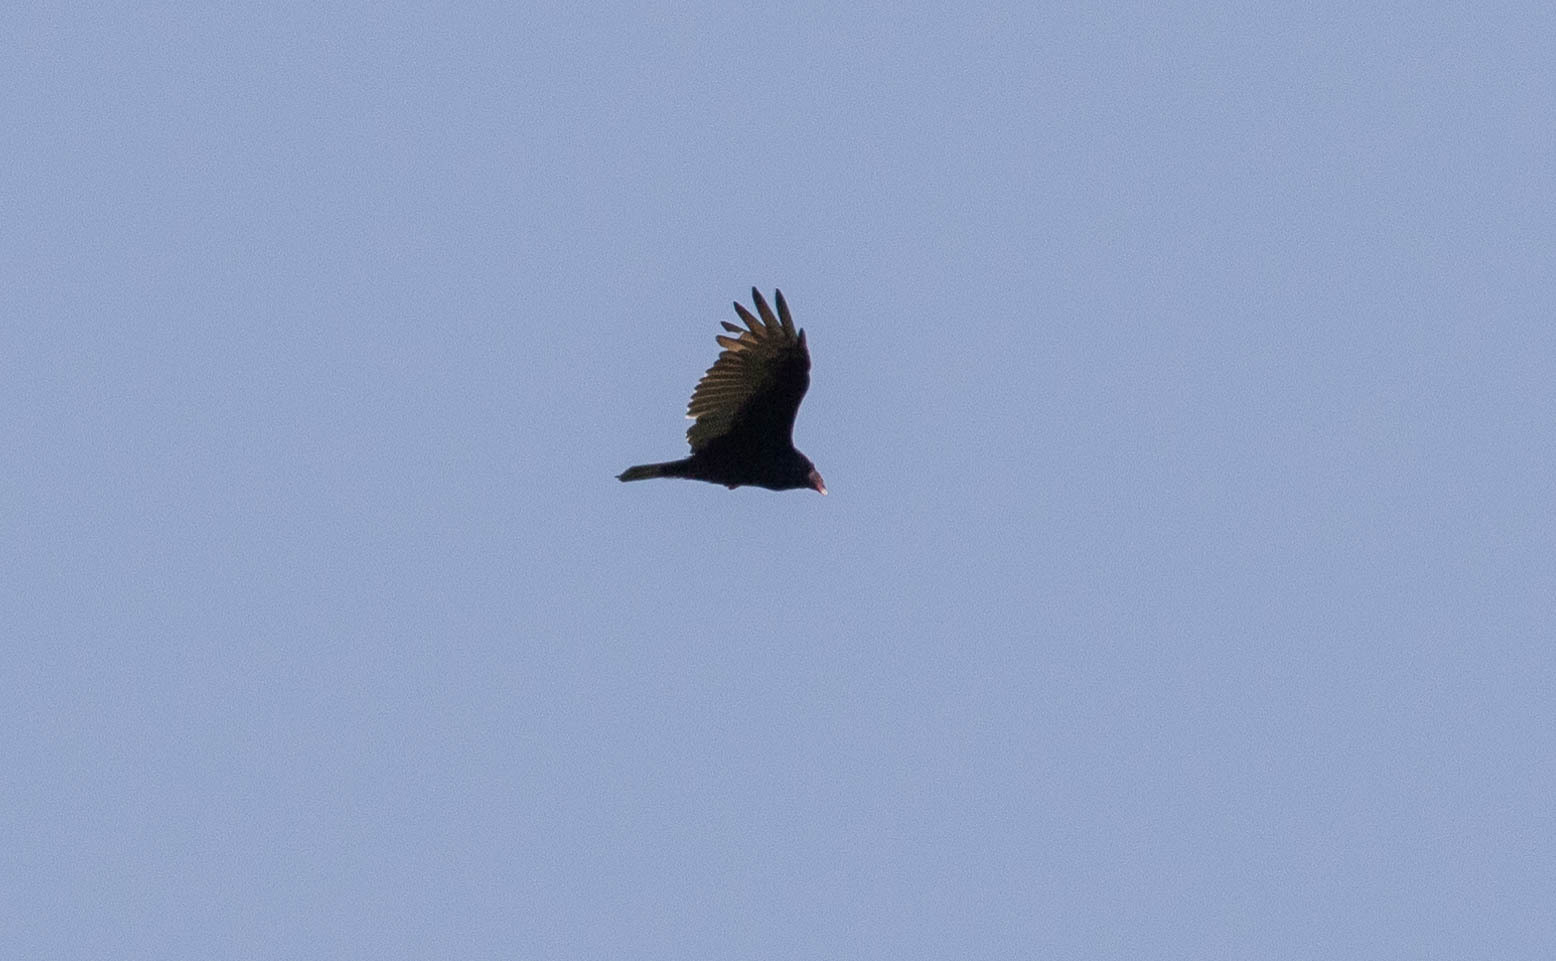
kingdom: Animalia
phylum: Chordata
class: Aves
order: Accipitriformes
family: Cathartidae
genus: Cathartes
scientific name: Cathartes aura
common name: Turkey vulture
